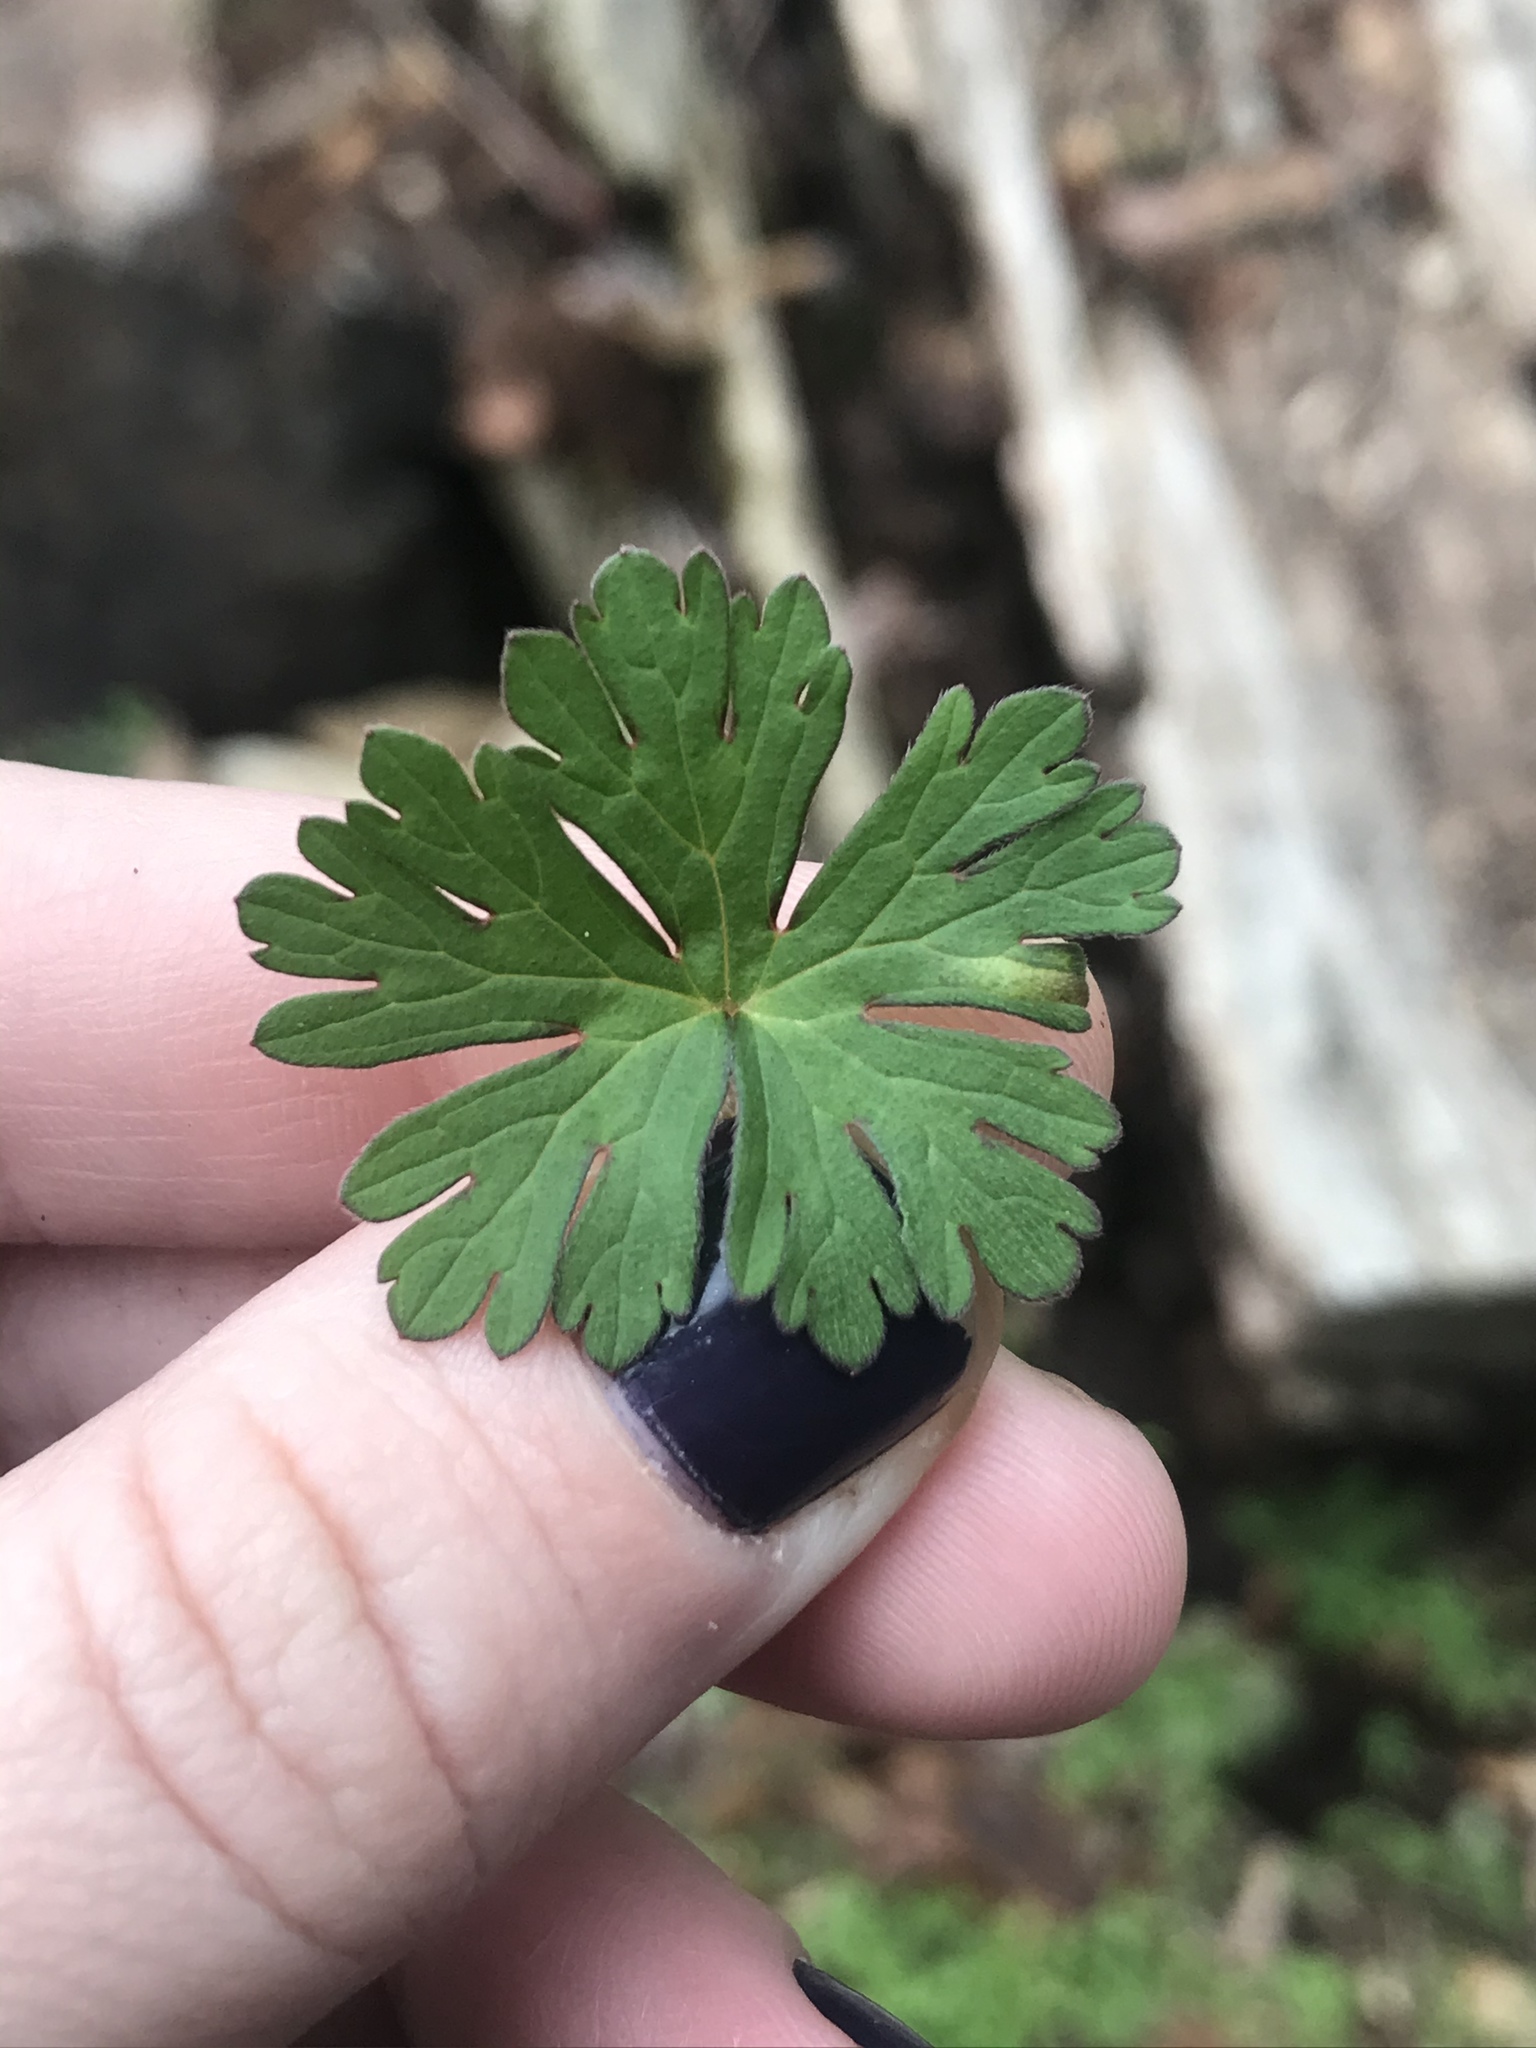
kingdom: Plantae
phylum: Tracheophyta
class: Magnoliopsida
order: Geraniales
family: Geraniaceae
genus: Geranium
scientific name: Geranium carolinianum
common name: Carolina crane's-bill
